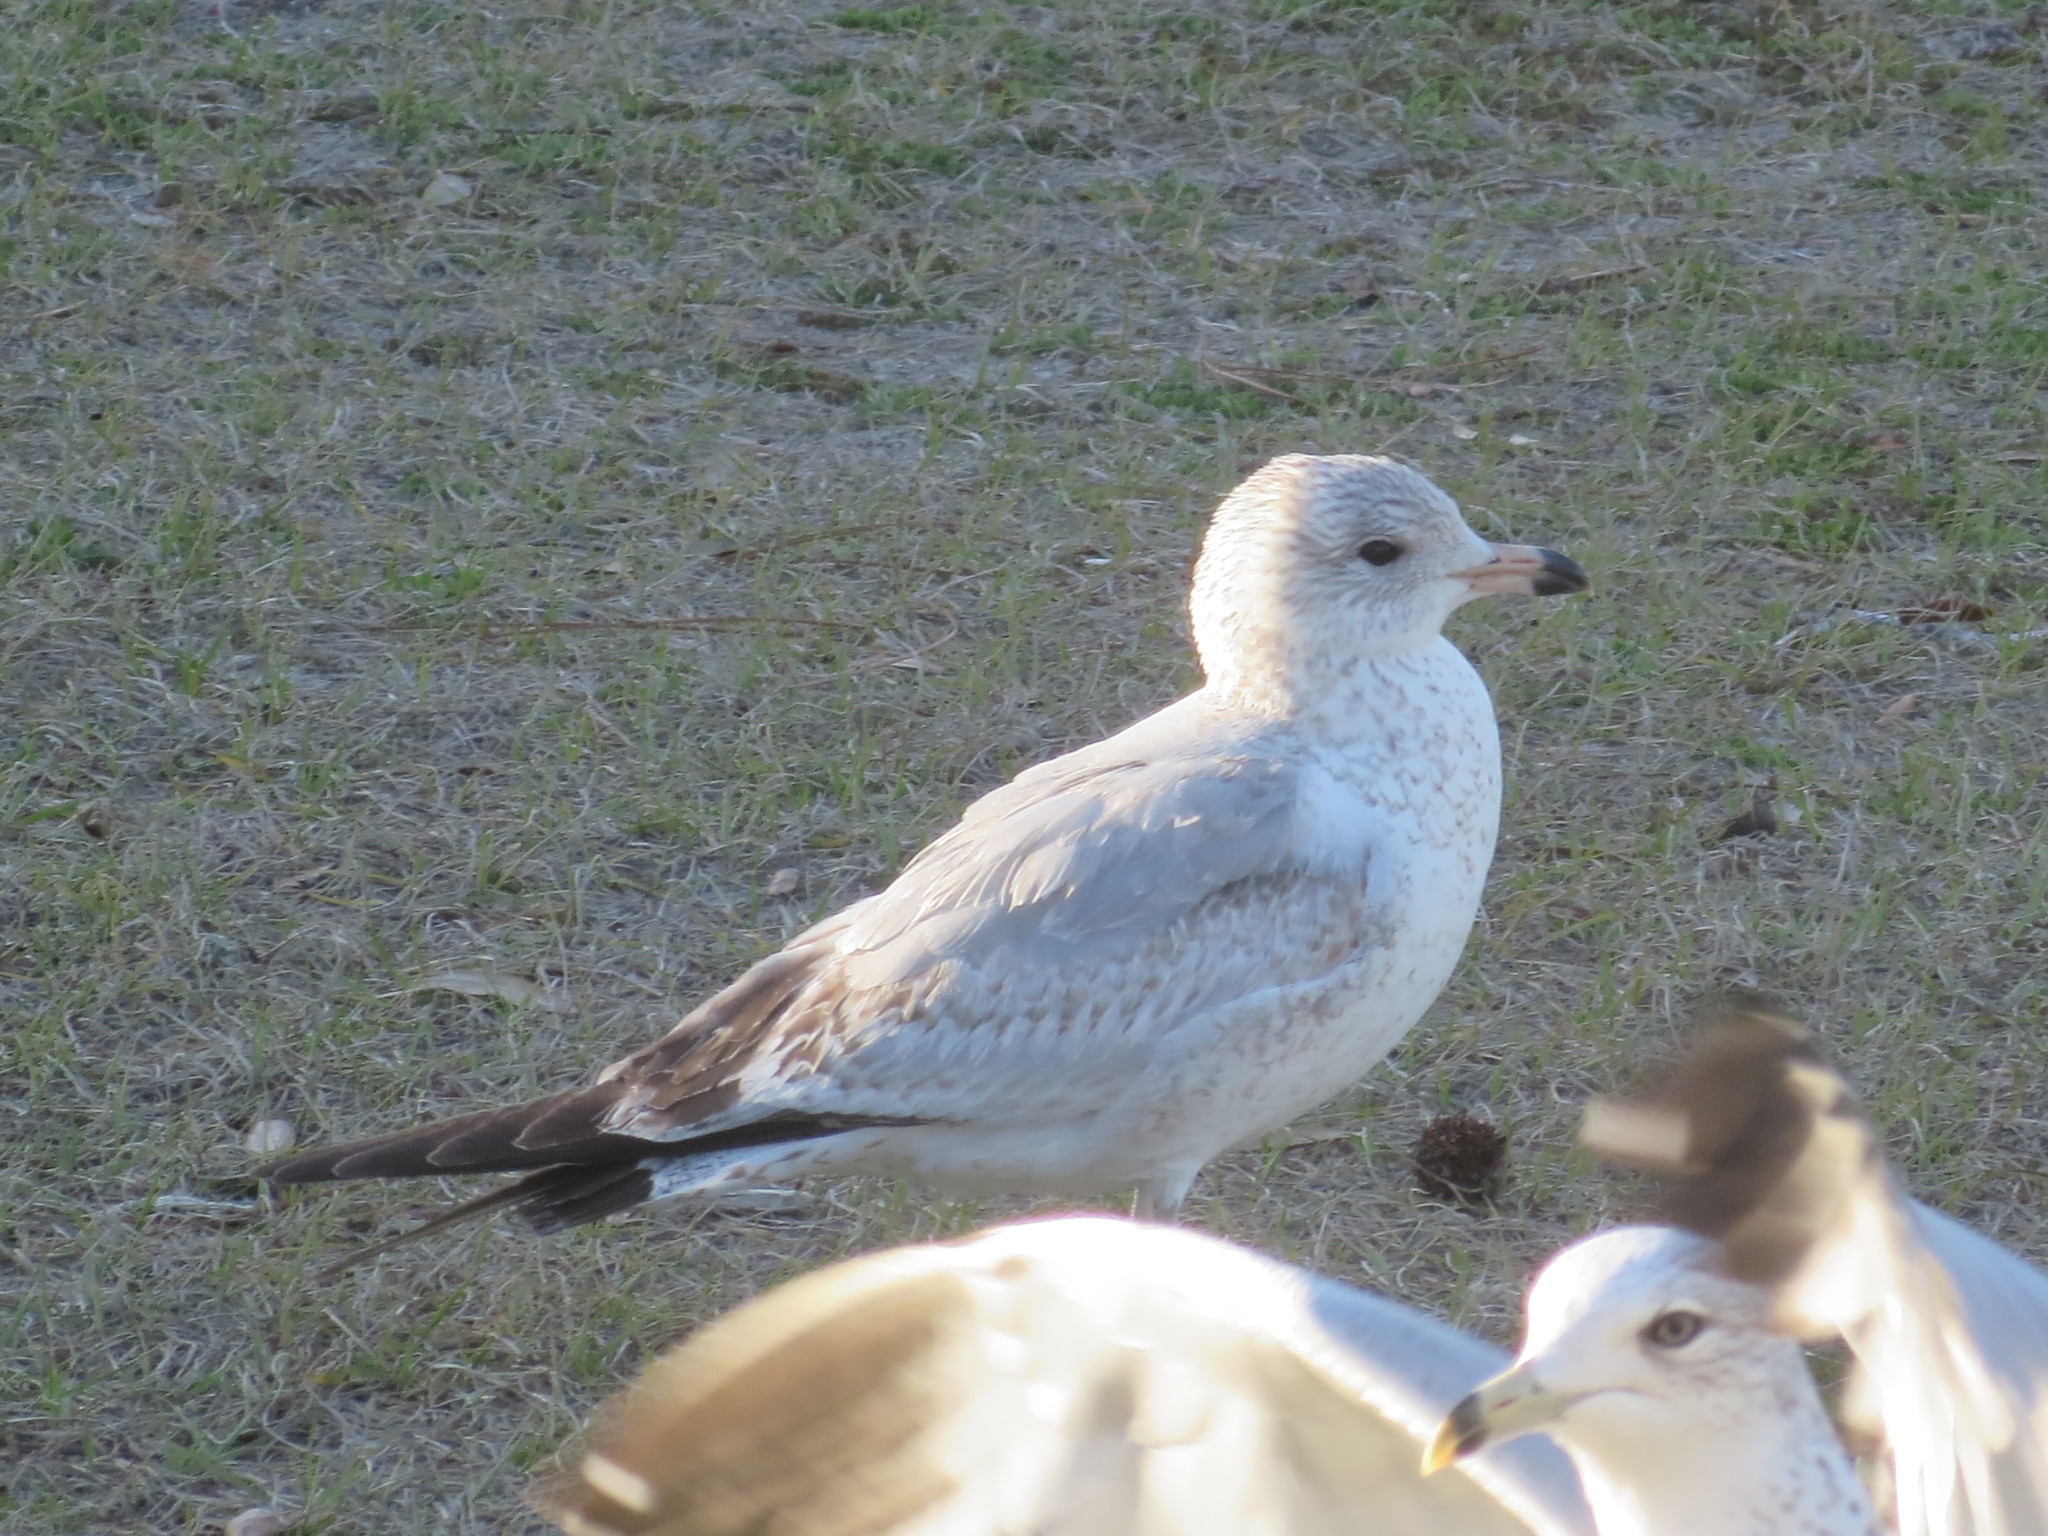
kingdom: Animalia
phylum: Chordata
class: Aves
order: Charadriiformes
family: Laridae
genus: Larus
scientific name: Larus delawarensis
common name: Ring-billed gull
